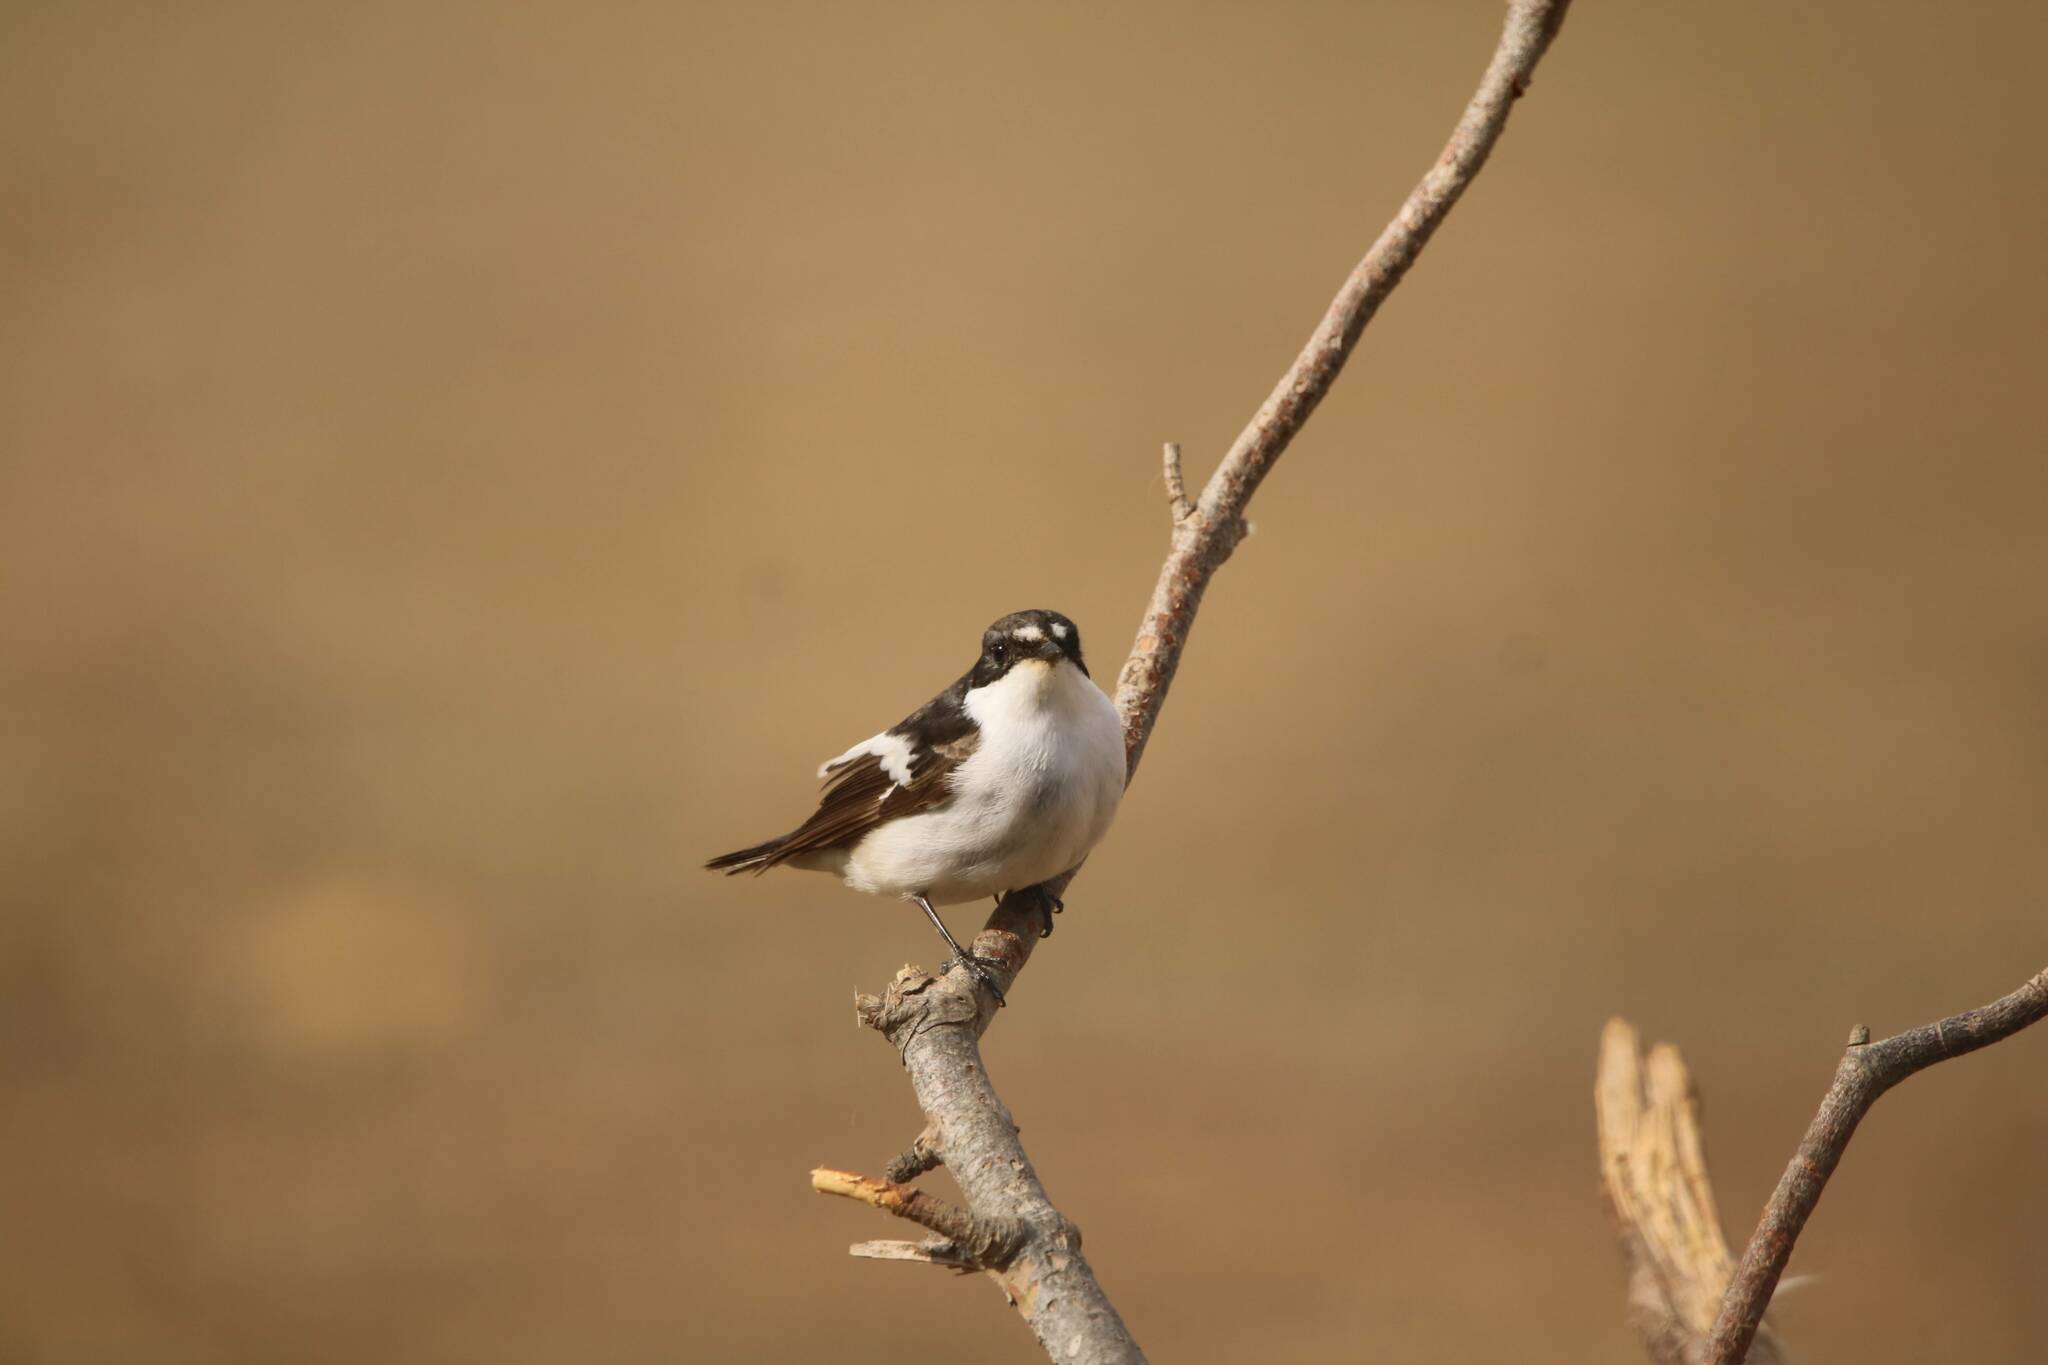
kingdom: Animalia
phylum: Chordata
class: Aves
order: Passeriformes
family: Muscicapidae
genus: Ficedula
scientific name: Ficedula hypoleuca
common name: European pied flycatcher
